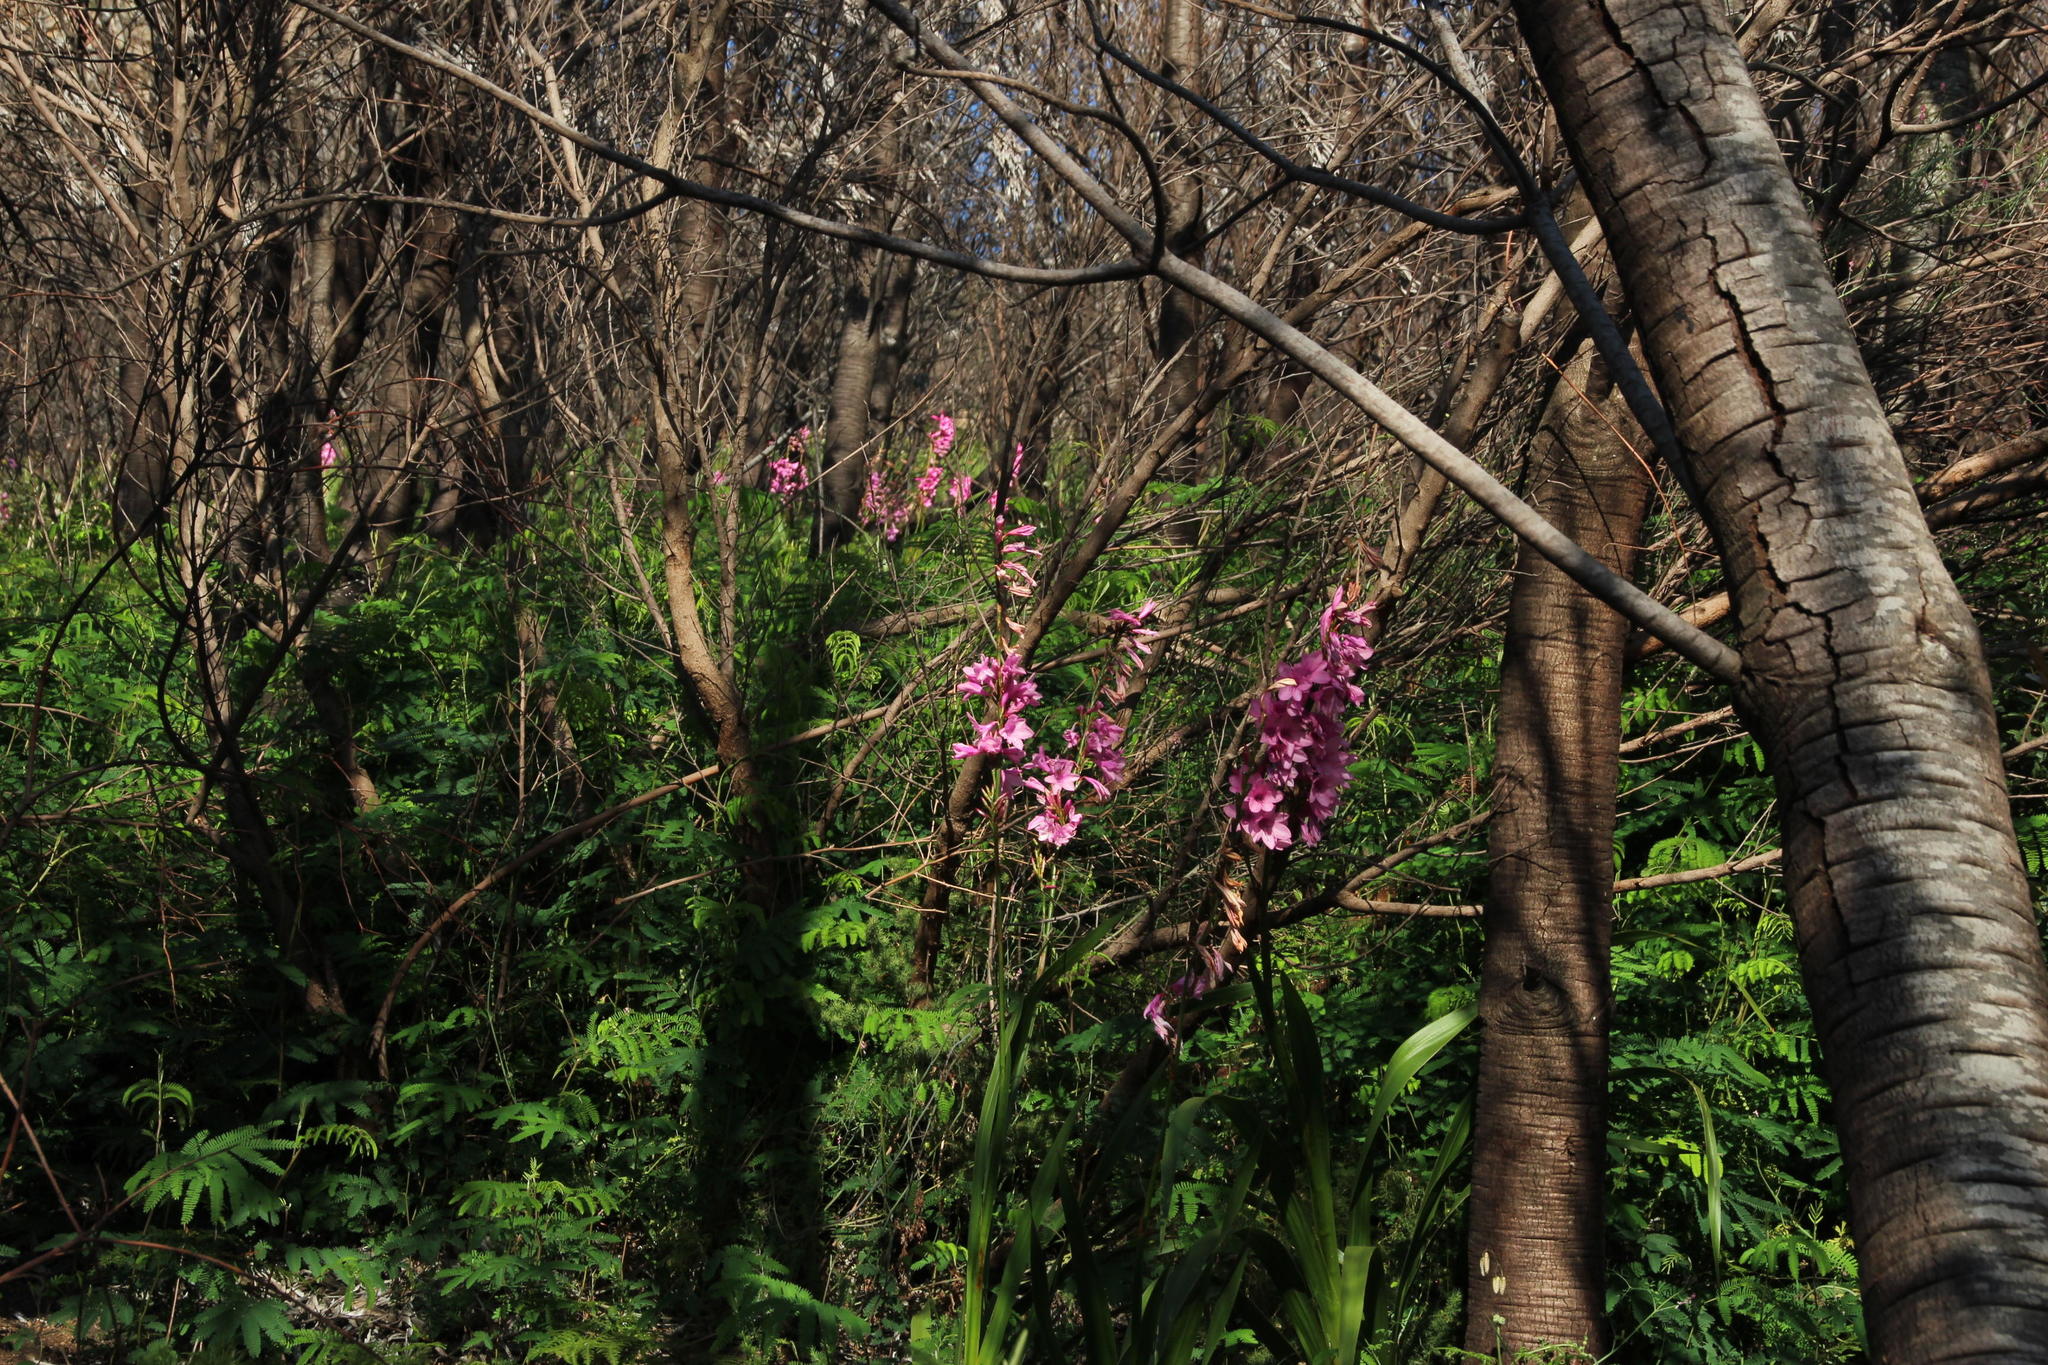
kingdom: Plantae
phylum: Tracheophyta
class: Liliopsida
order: Asparagales
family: Iridaceae
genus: Watsonia
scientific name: Watsonia borbonica
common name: Bugle-lily
